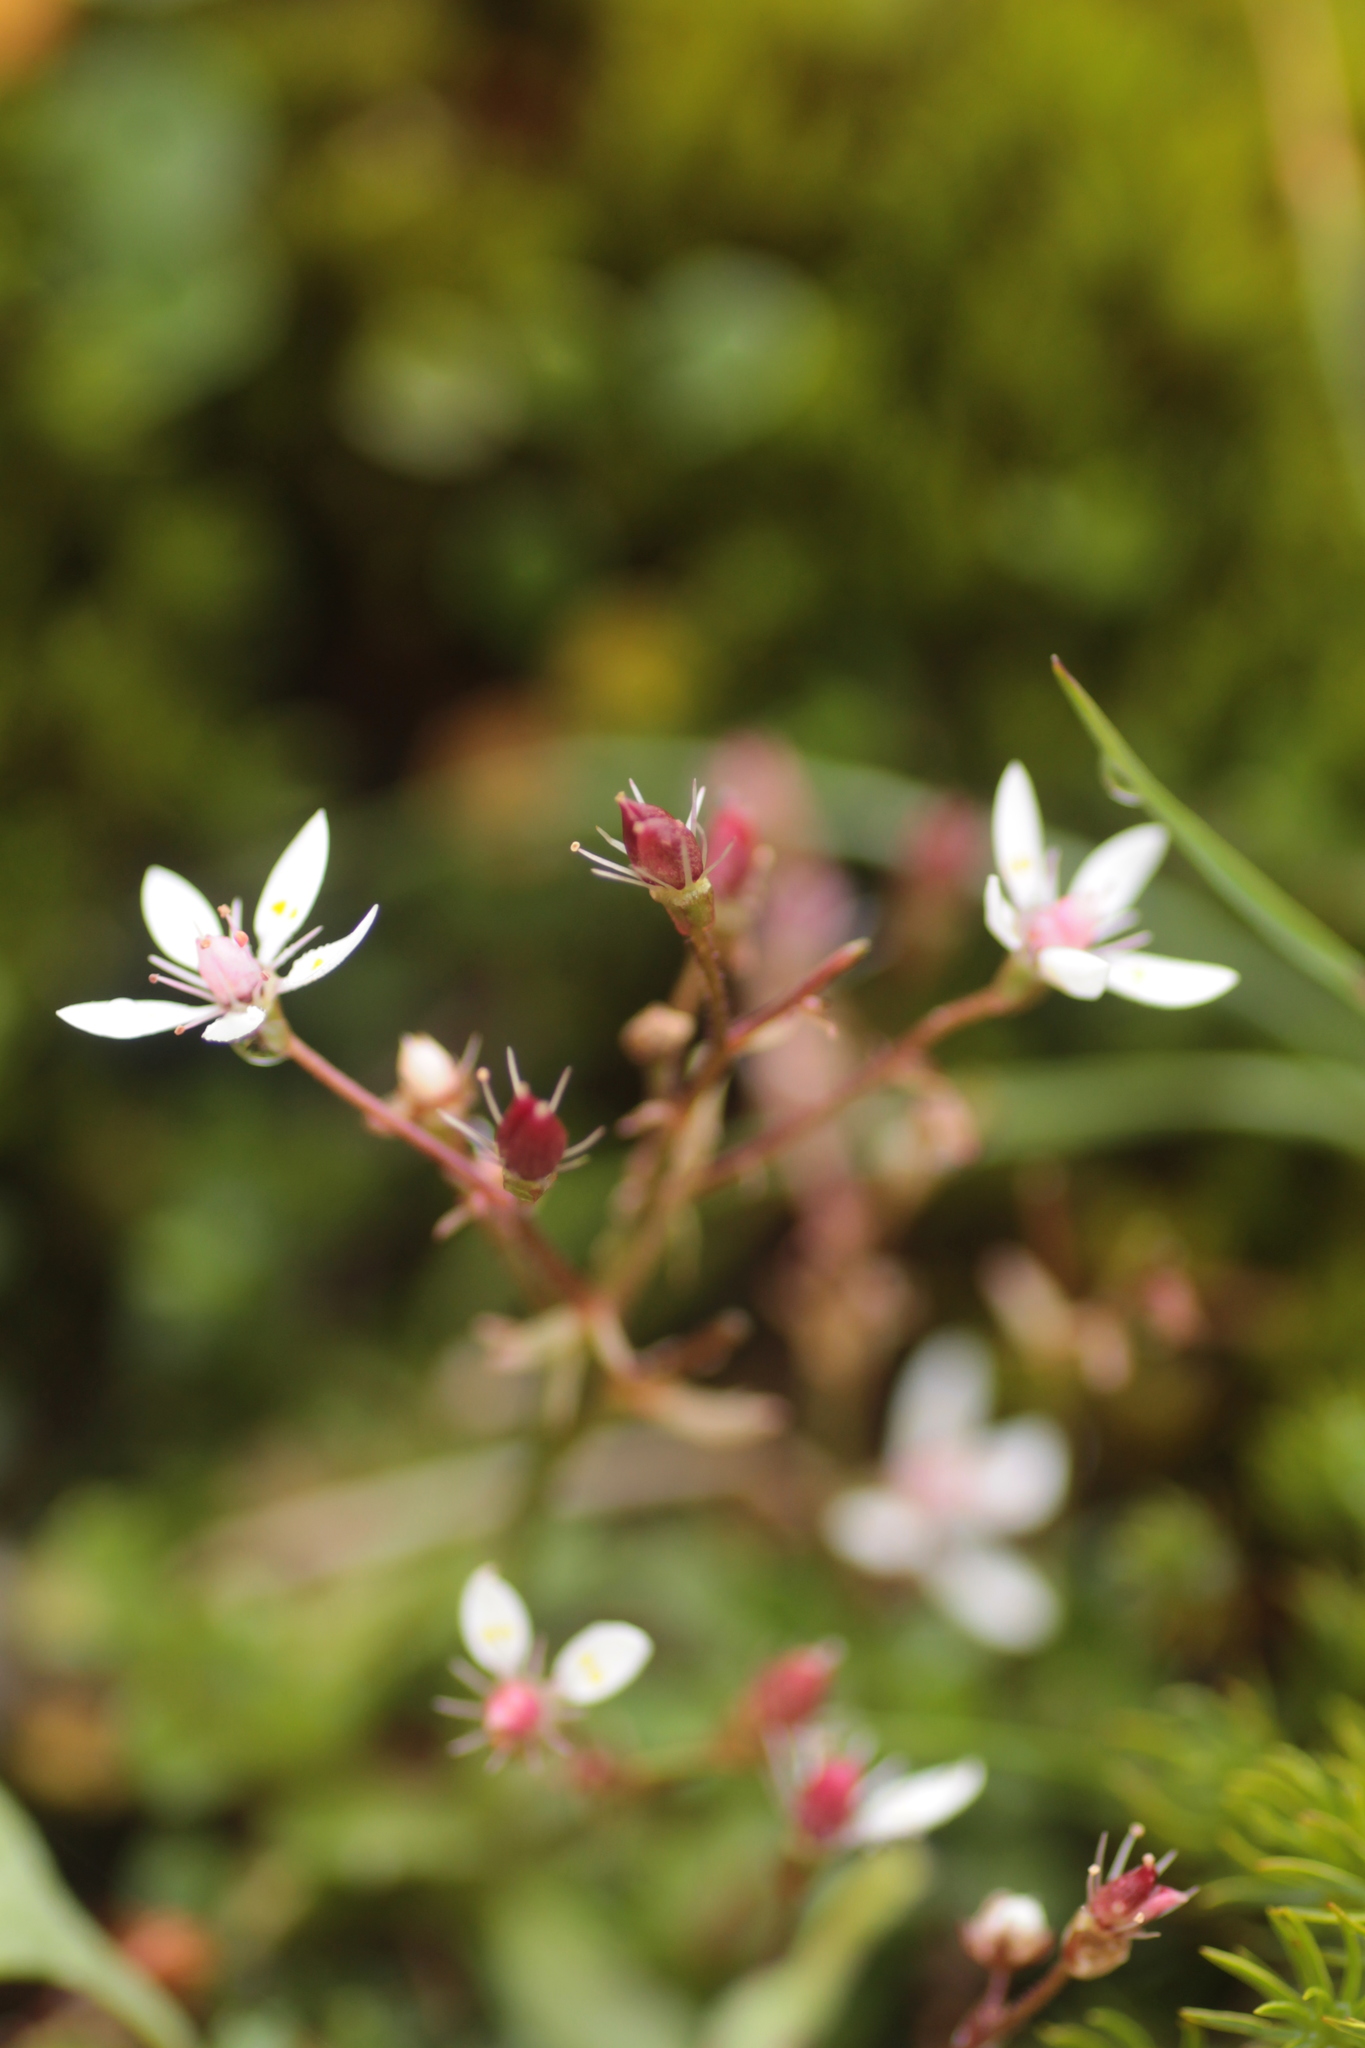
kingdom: Plantae
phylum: Tracheophyta
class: Magnoliopsida
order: Saxifragales
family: Saxifragaceae
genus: Micranthes
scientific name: Micranthes stellaris
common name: Starry saxifrage
